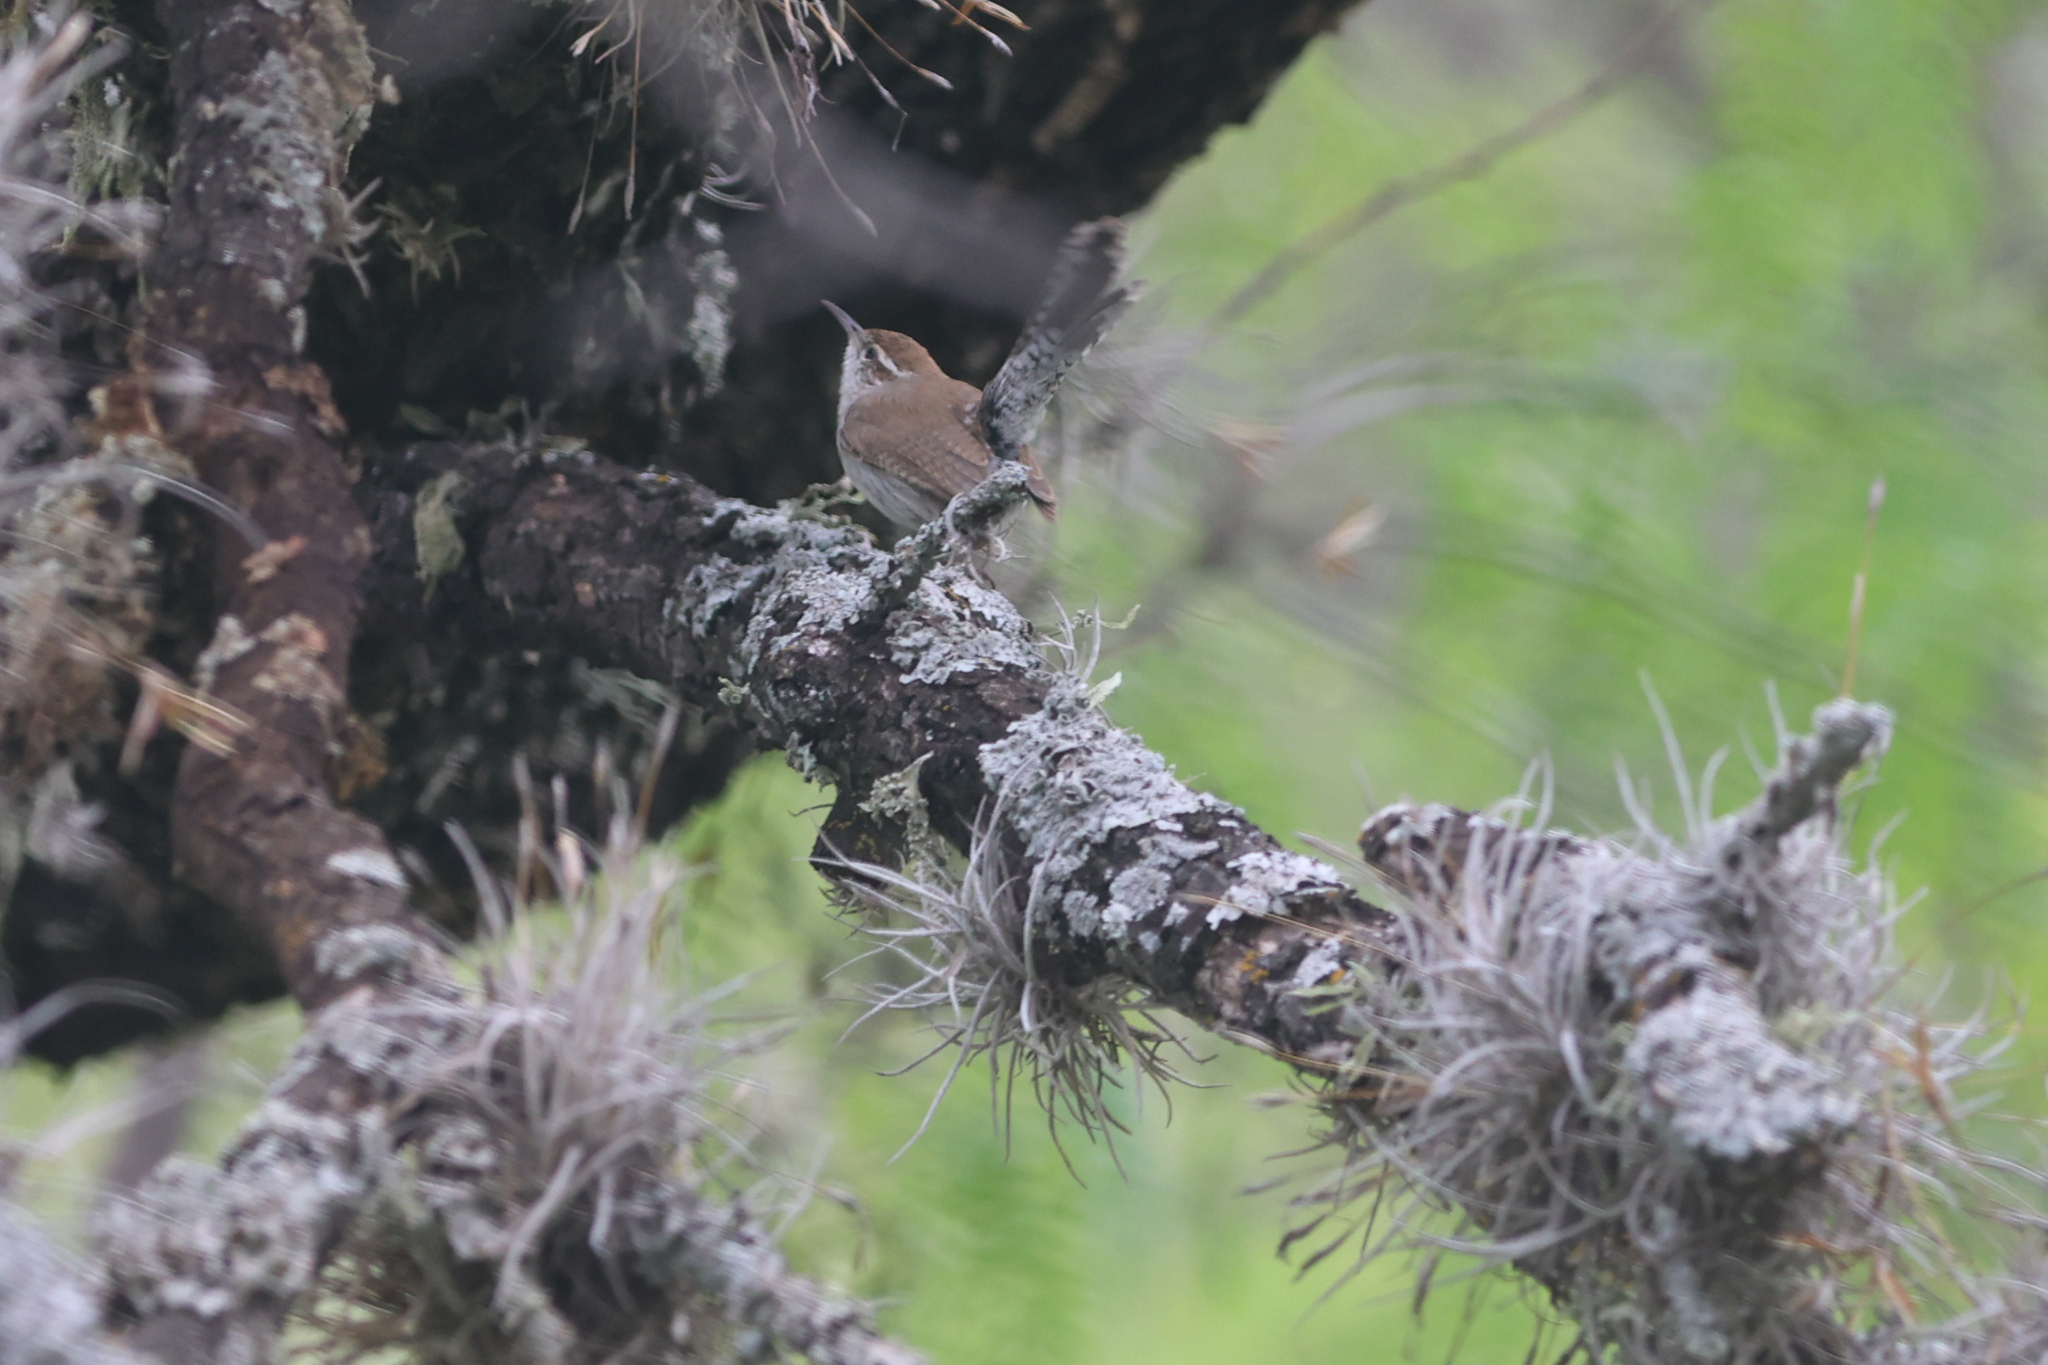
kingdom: Animalia
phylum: Chordata
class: Aves
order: Passeriformes
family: Troglodytidae
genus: Thryomanes
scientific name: Thryomanes bewickii
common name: Bewick's wren
